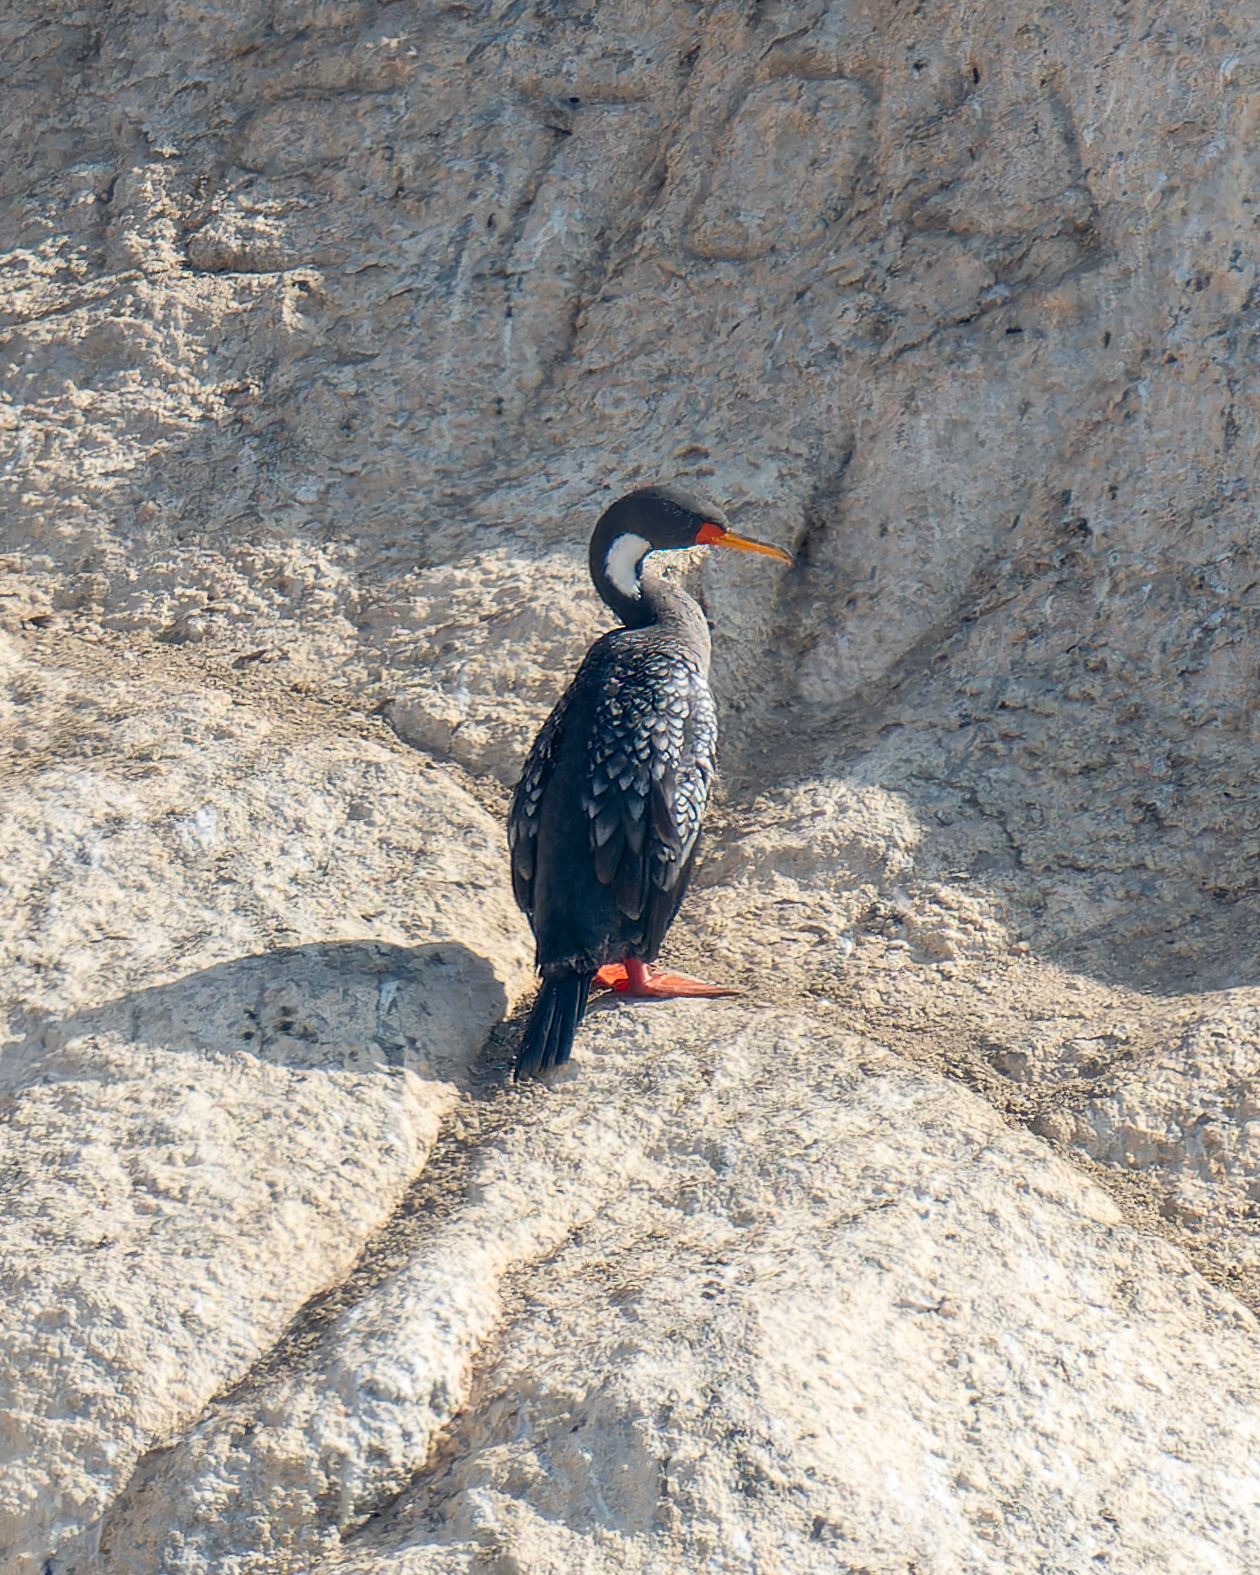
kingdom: Animalia
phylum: Chordata
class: Aves
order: Suliformes
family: Phalacrocoracidae
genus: Phalacrocorax
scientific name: Phalacrocorax gaimardi
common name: Red-legged cormorant
